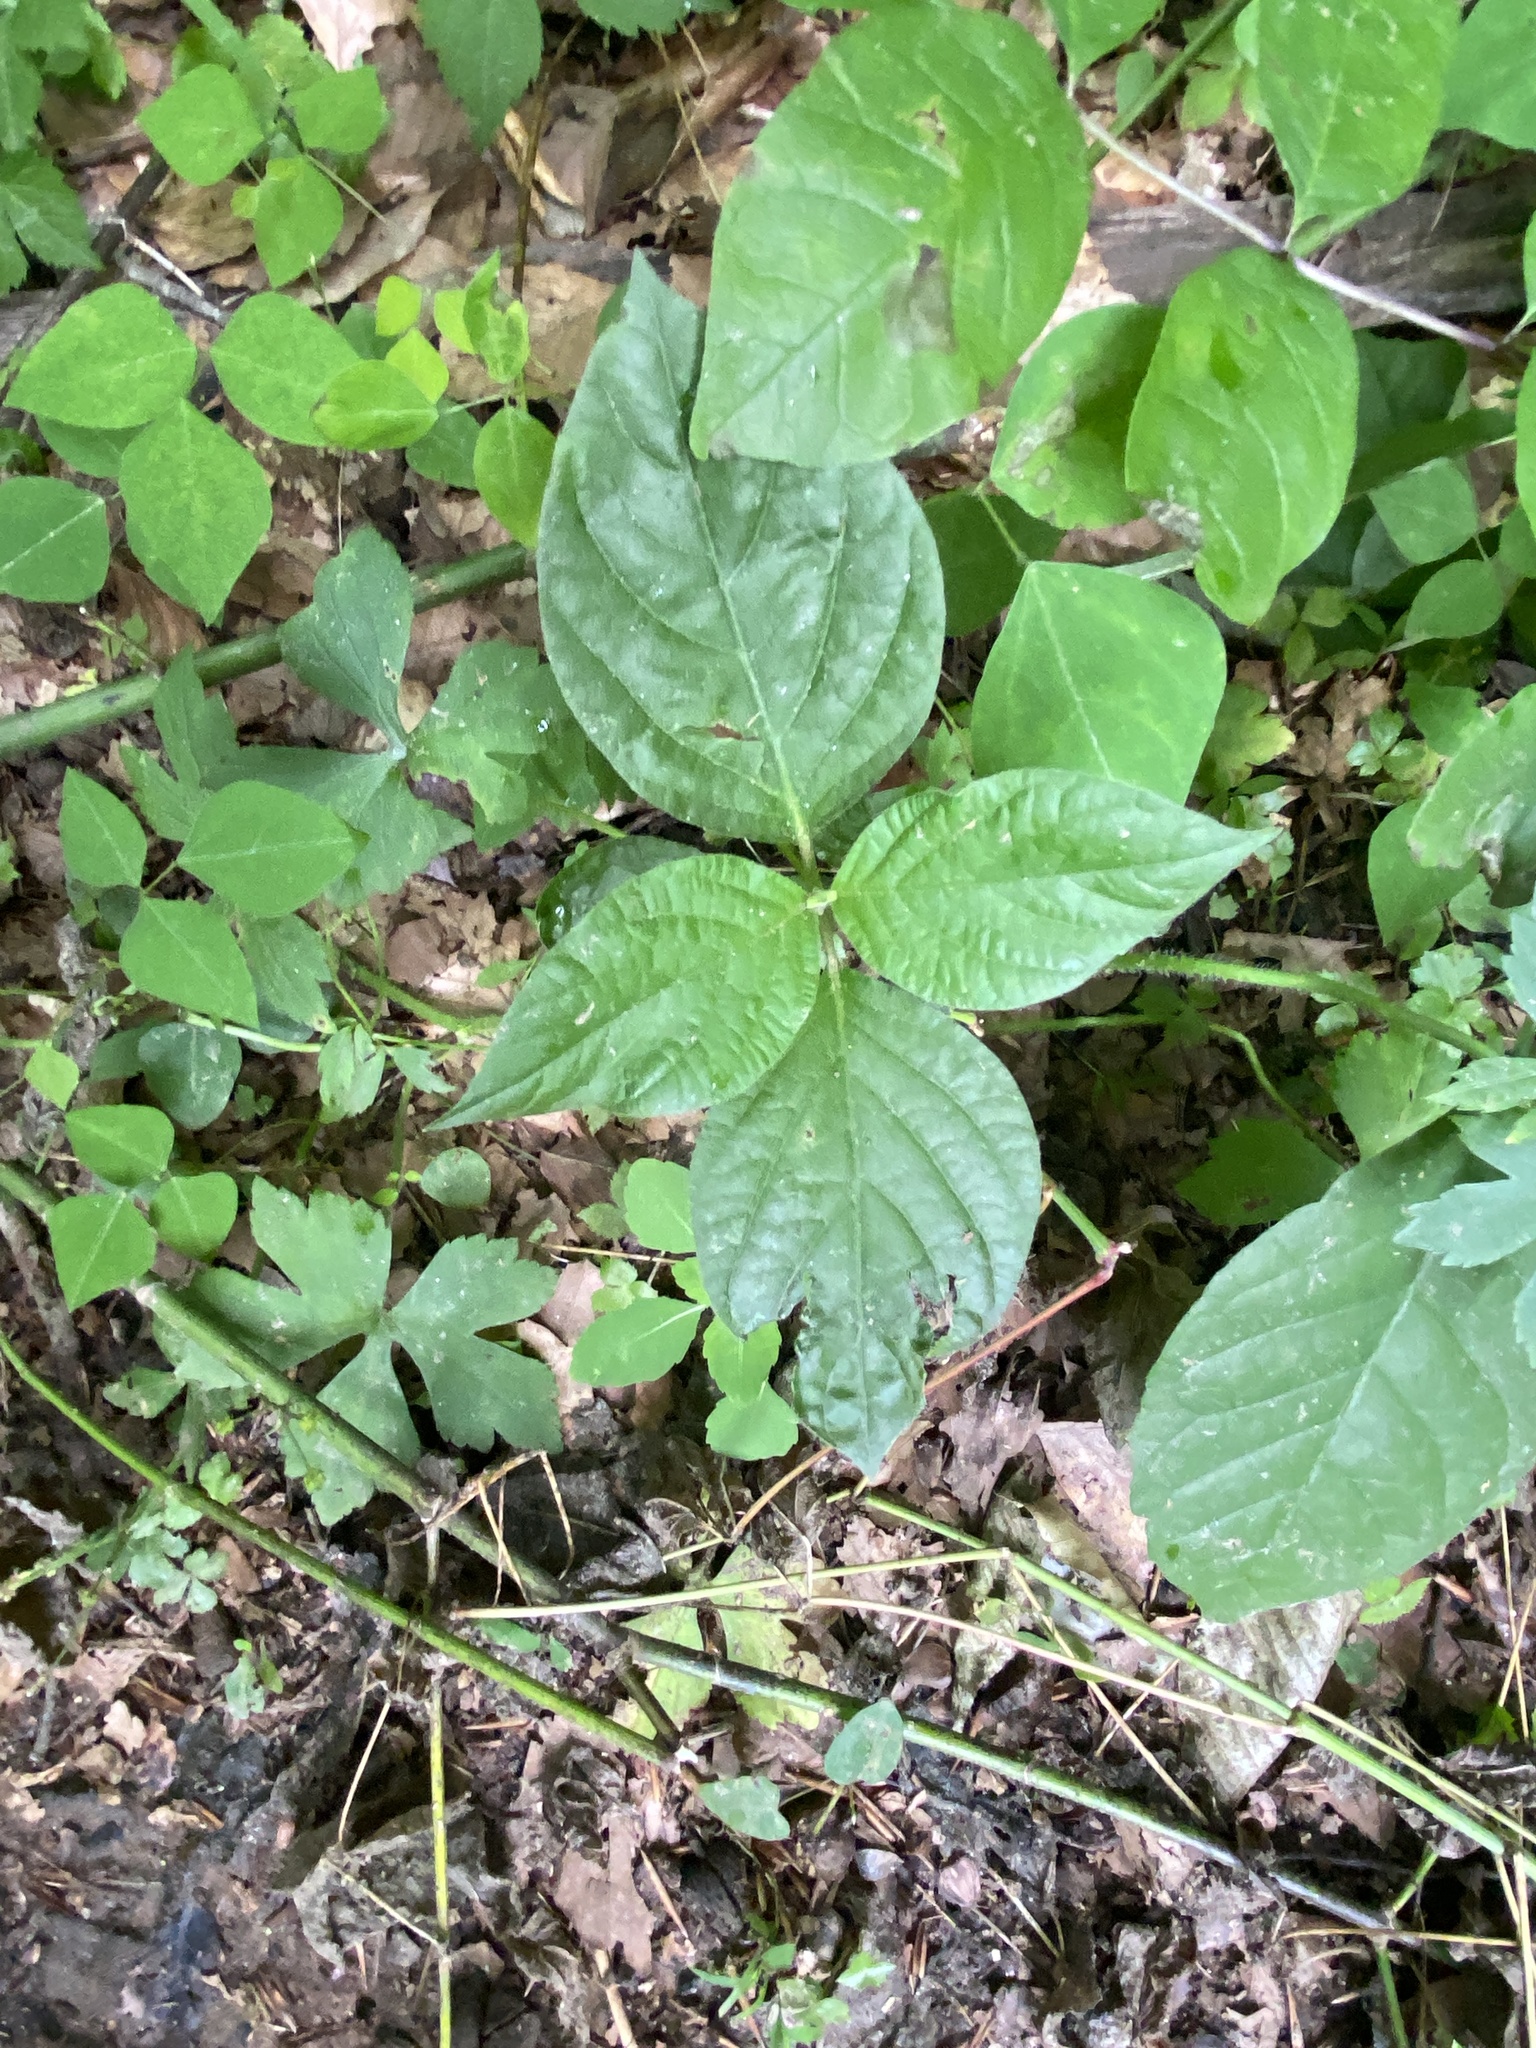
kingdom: Plantae
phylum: Tracheophyta
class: Magnoliopsida
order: Caryophyllales
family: Amaranthaceae
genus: Achyranthes
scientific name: Achyranthes bidentata
